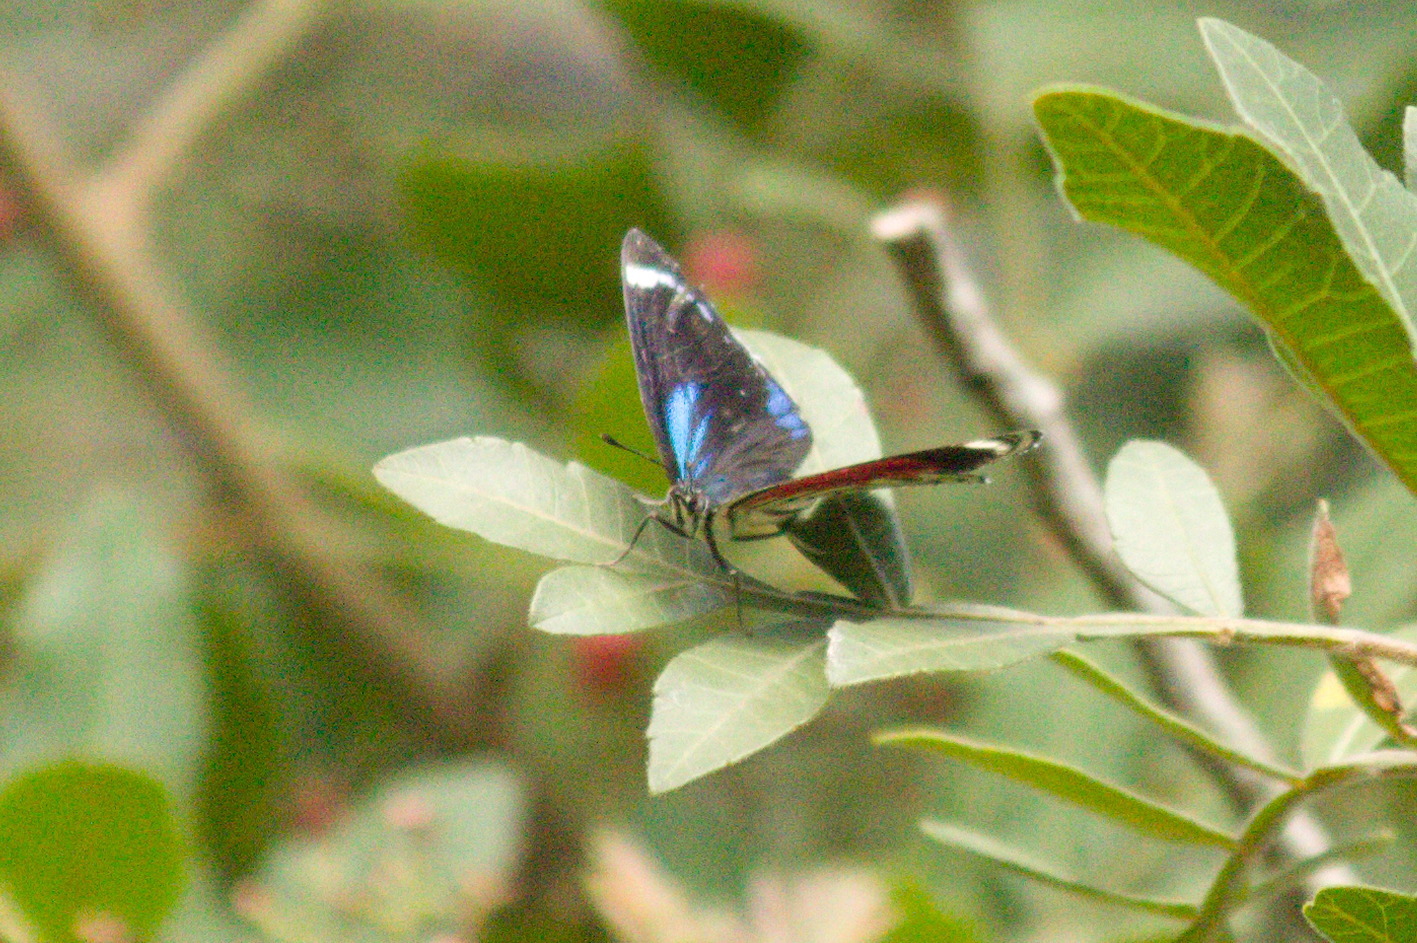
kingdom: Animalia
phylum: Arthropoda
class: Insecta
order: Lepidoptera
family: Nymphalidae
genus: Diaethria
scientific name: Diaethria candrena
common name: Number eighty
